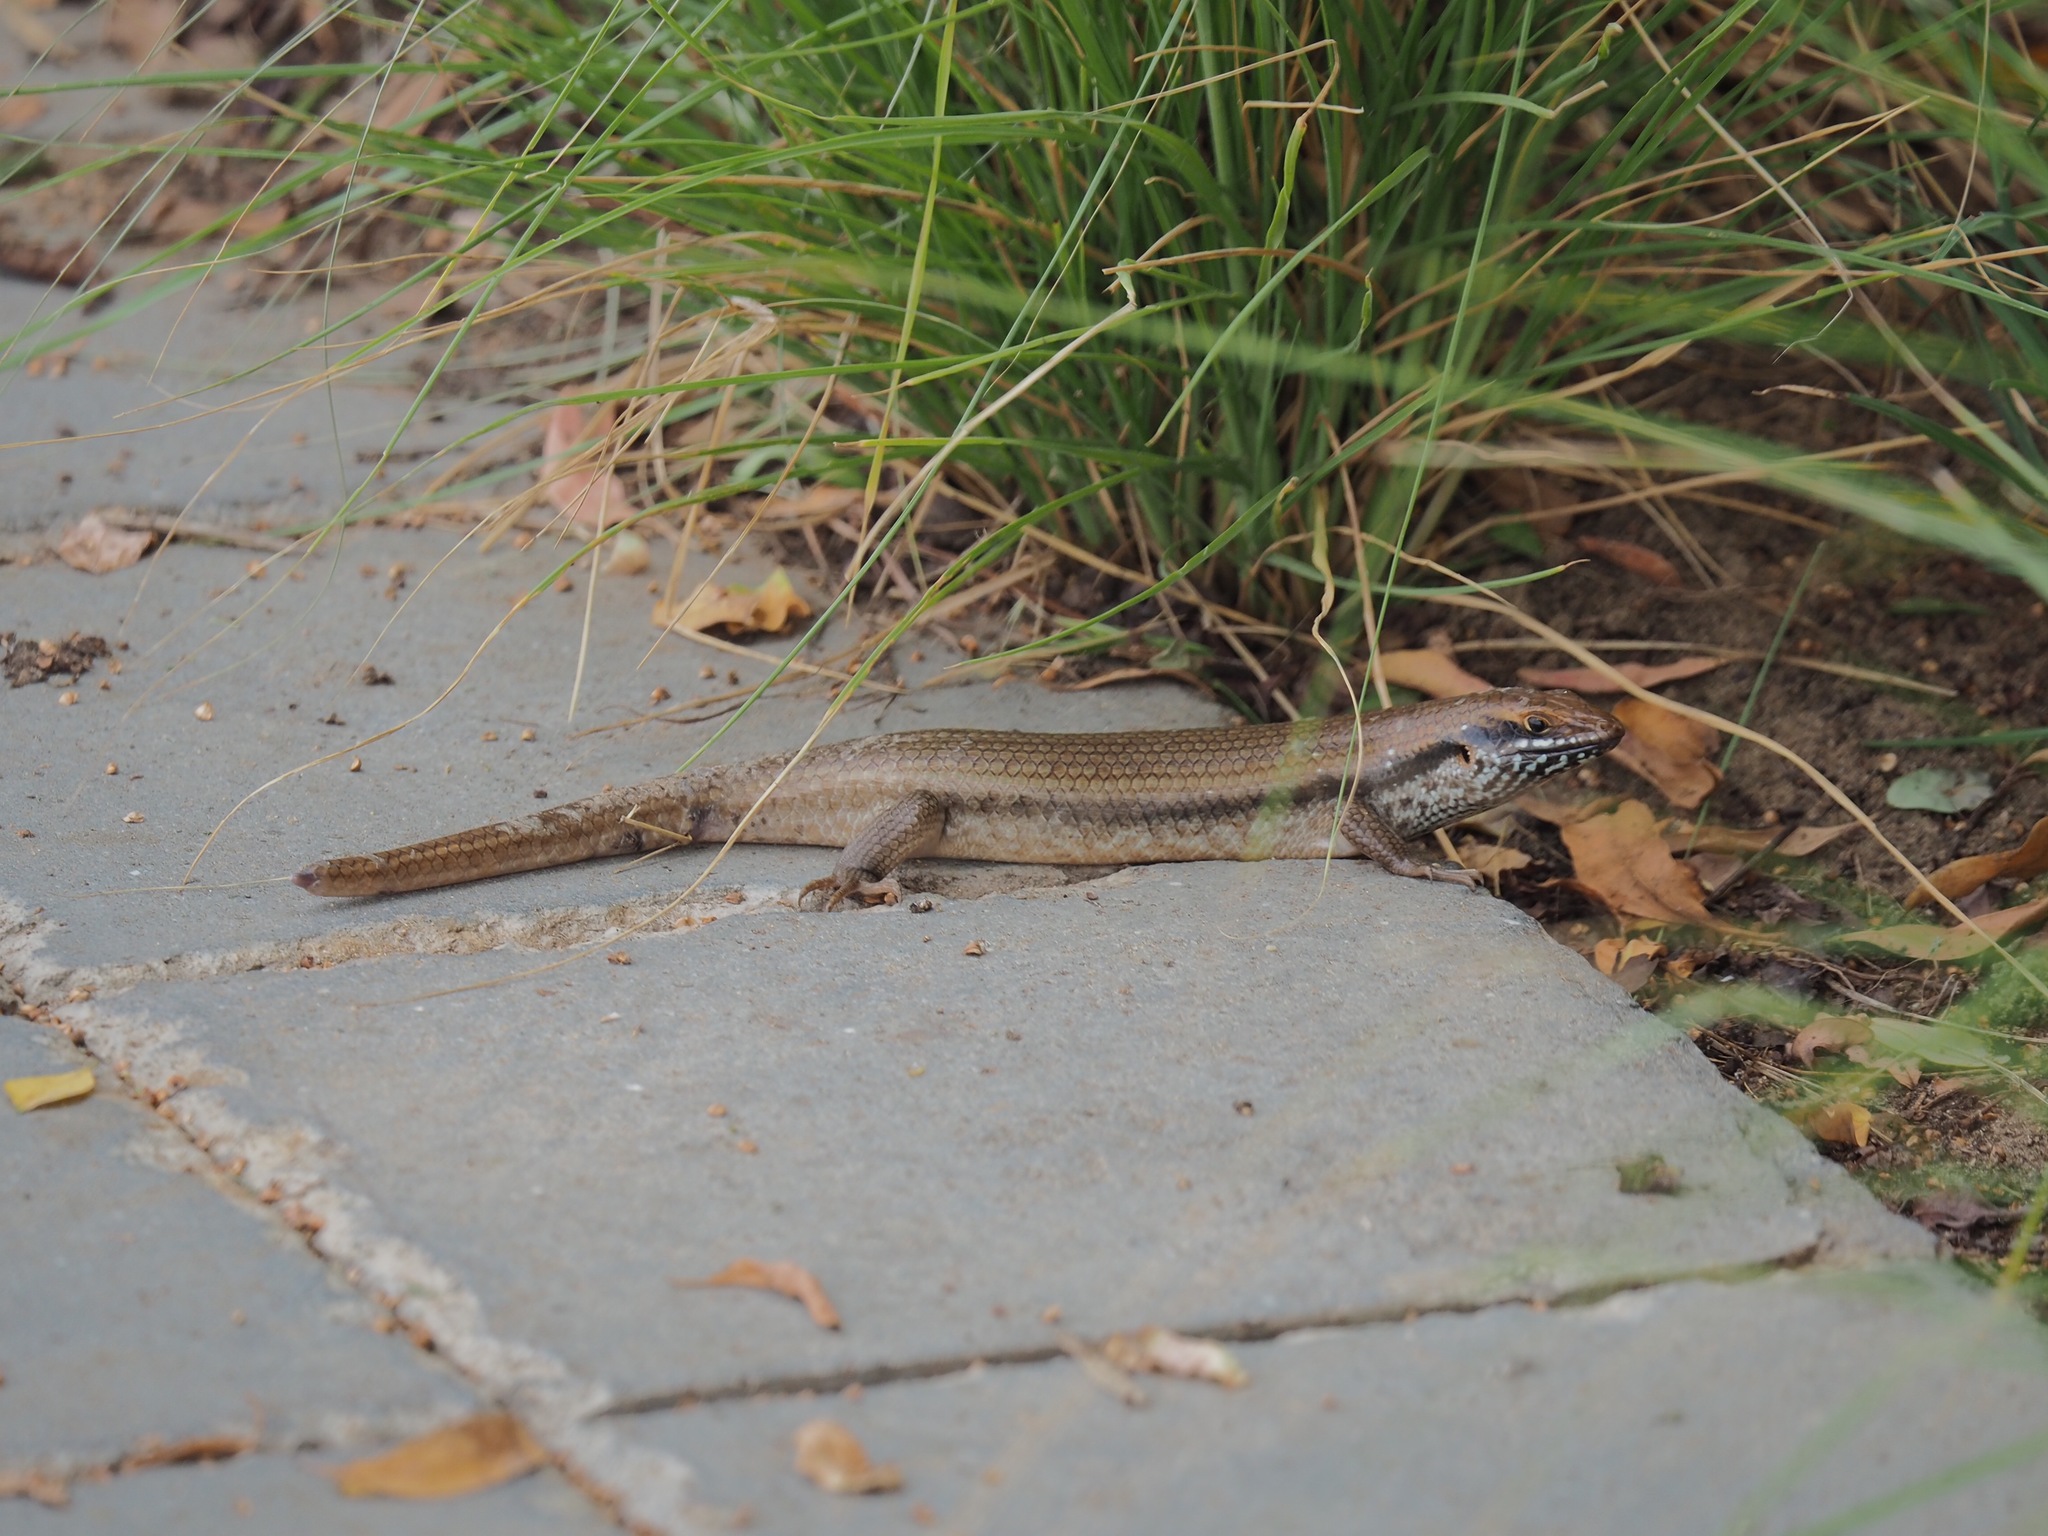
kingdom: Animalia
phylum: Chordata
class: Squamata
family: Scincidae
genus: Trachylepis
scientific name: Trachylepis brevicollis
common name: Short-necked skink
